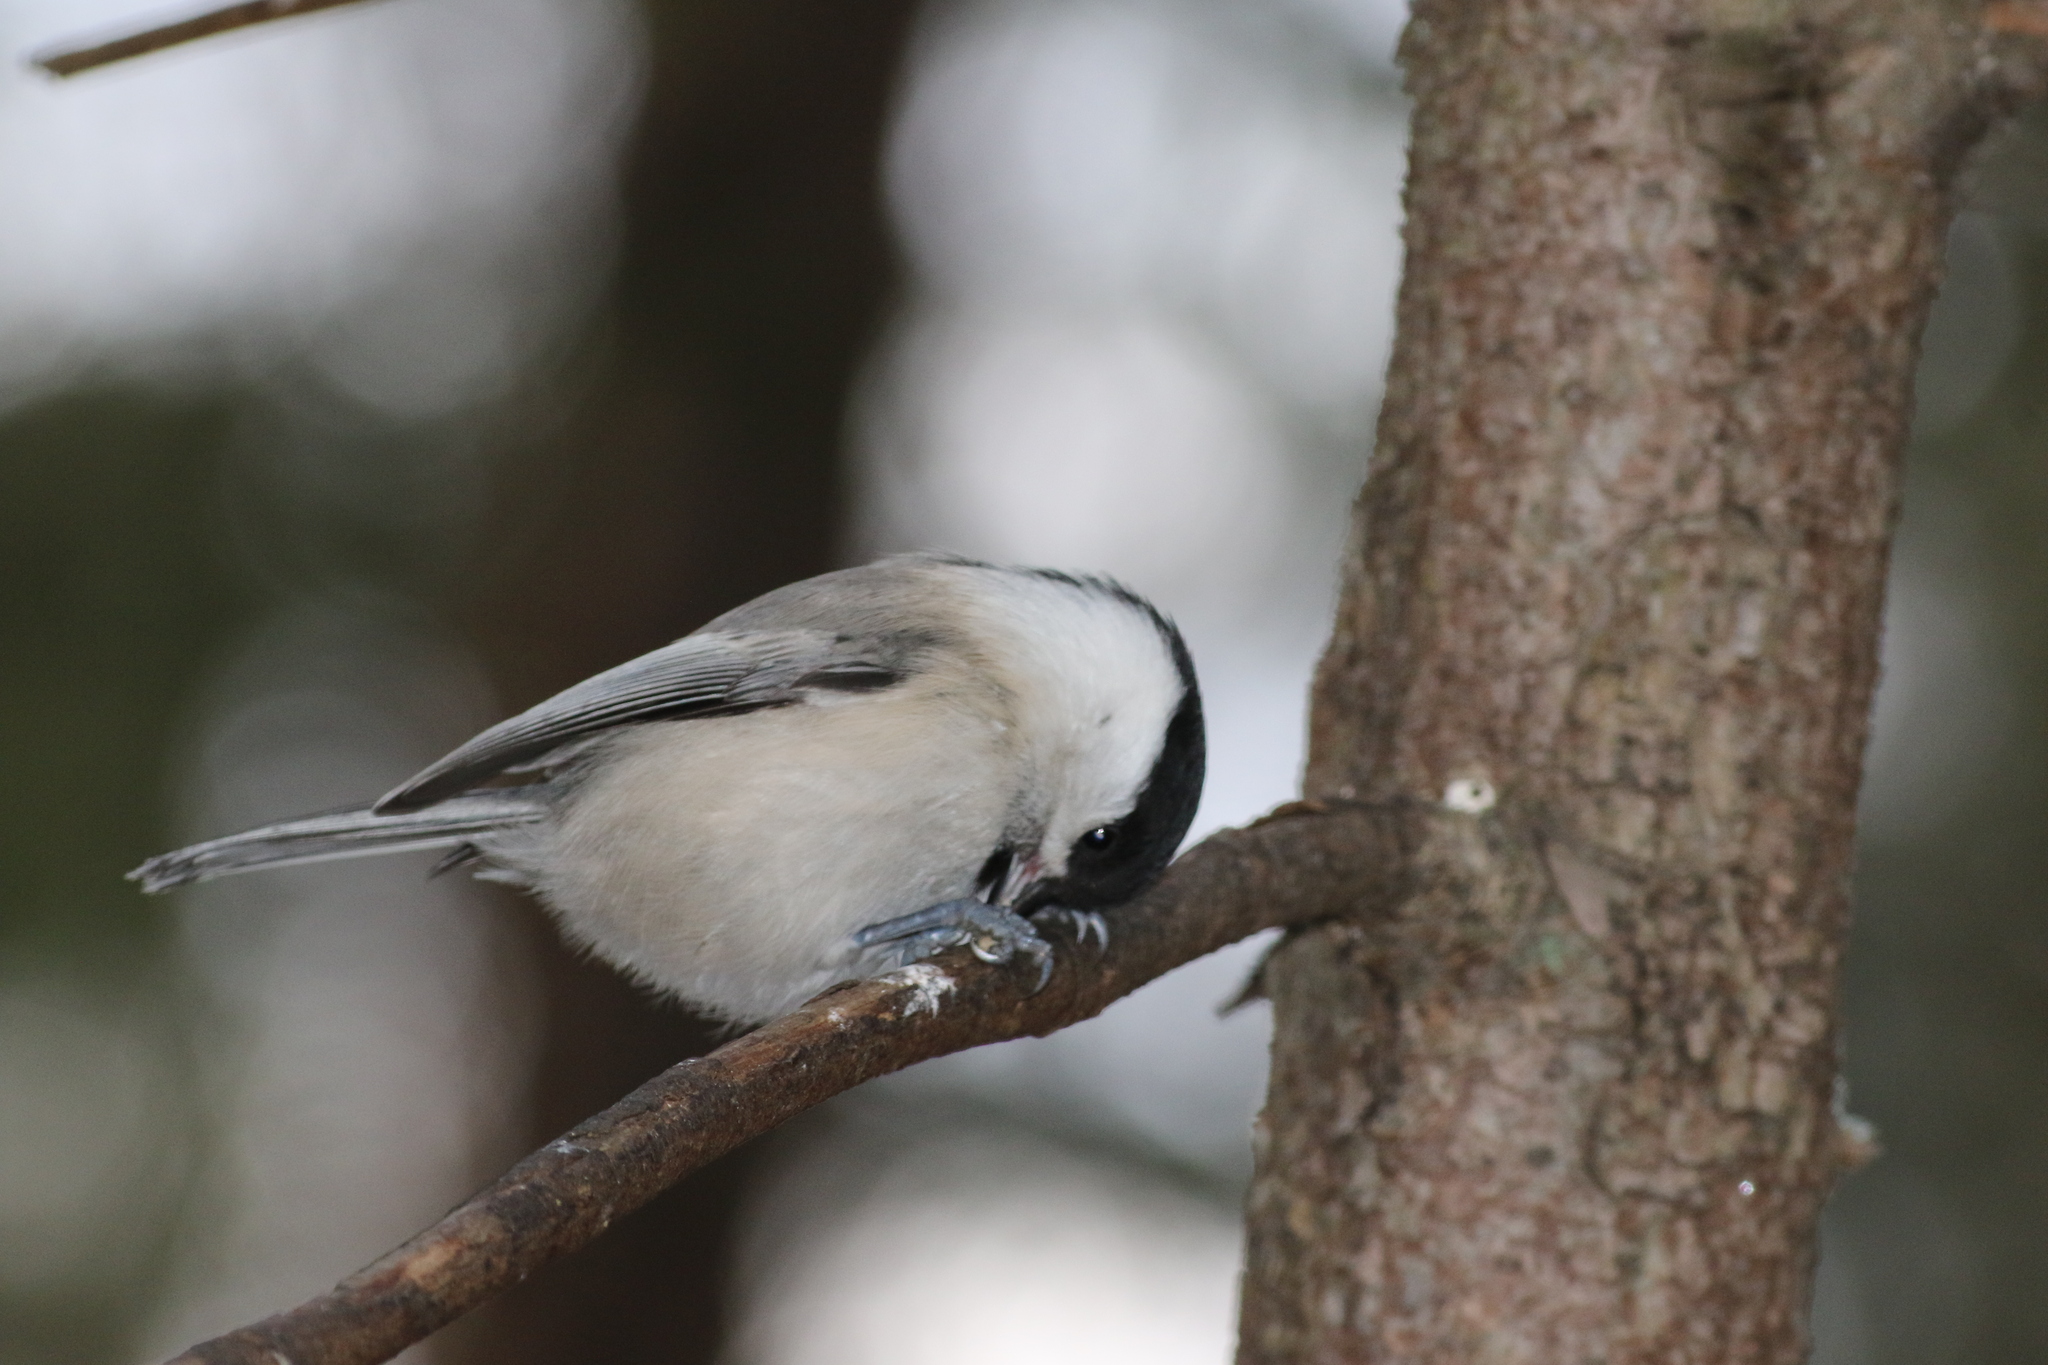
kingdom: Animalia
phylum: Chordata
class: Aves
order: Passeriformes
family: Paridae
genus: Poecile
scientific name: Poecile montanus
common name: Willow tit
